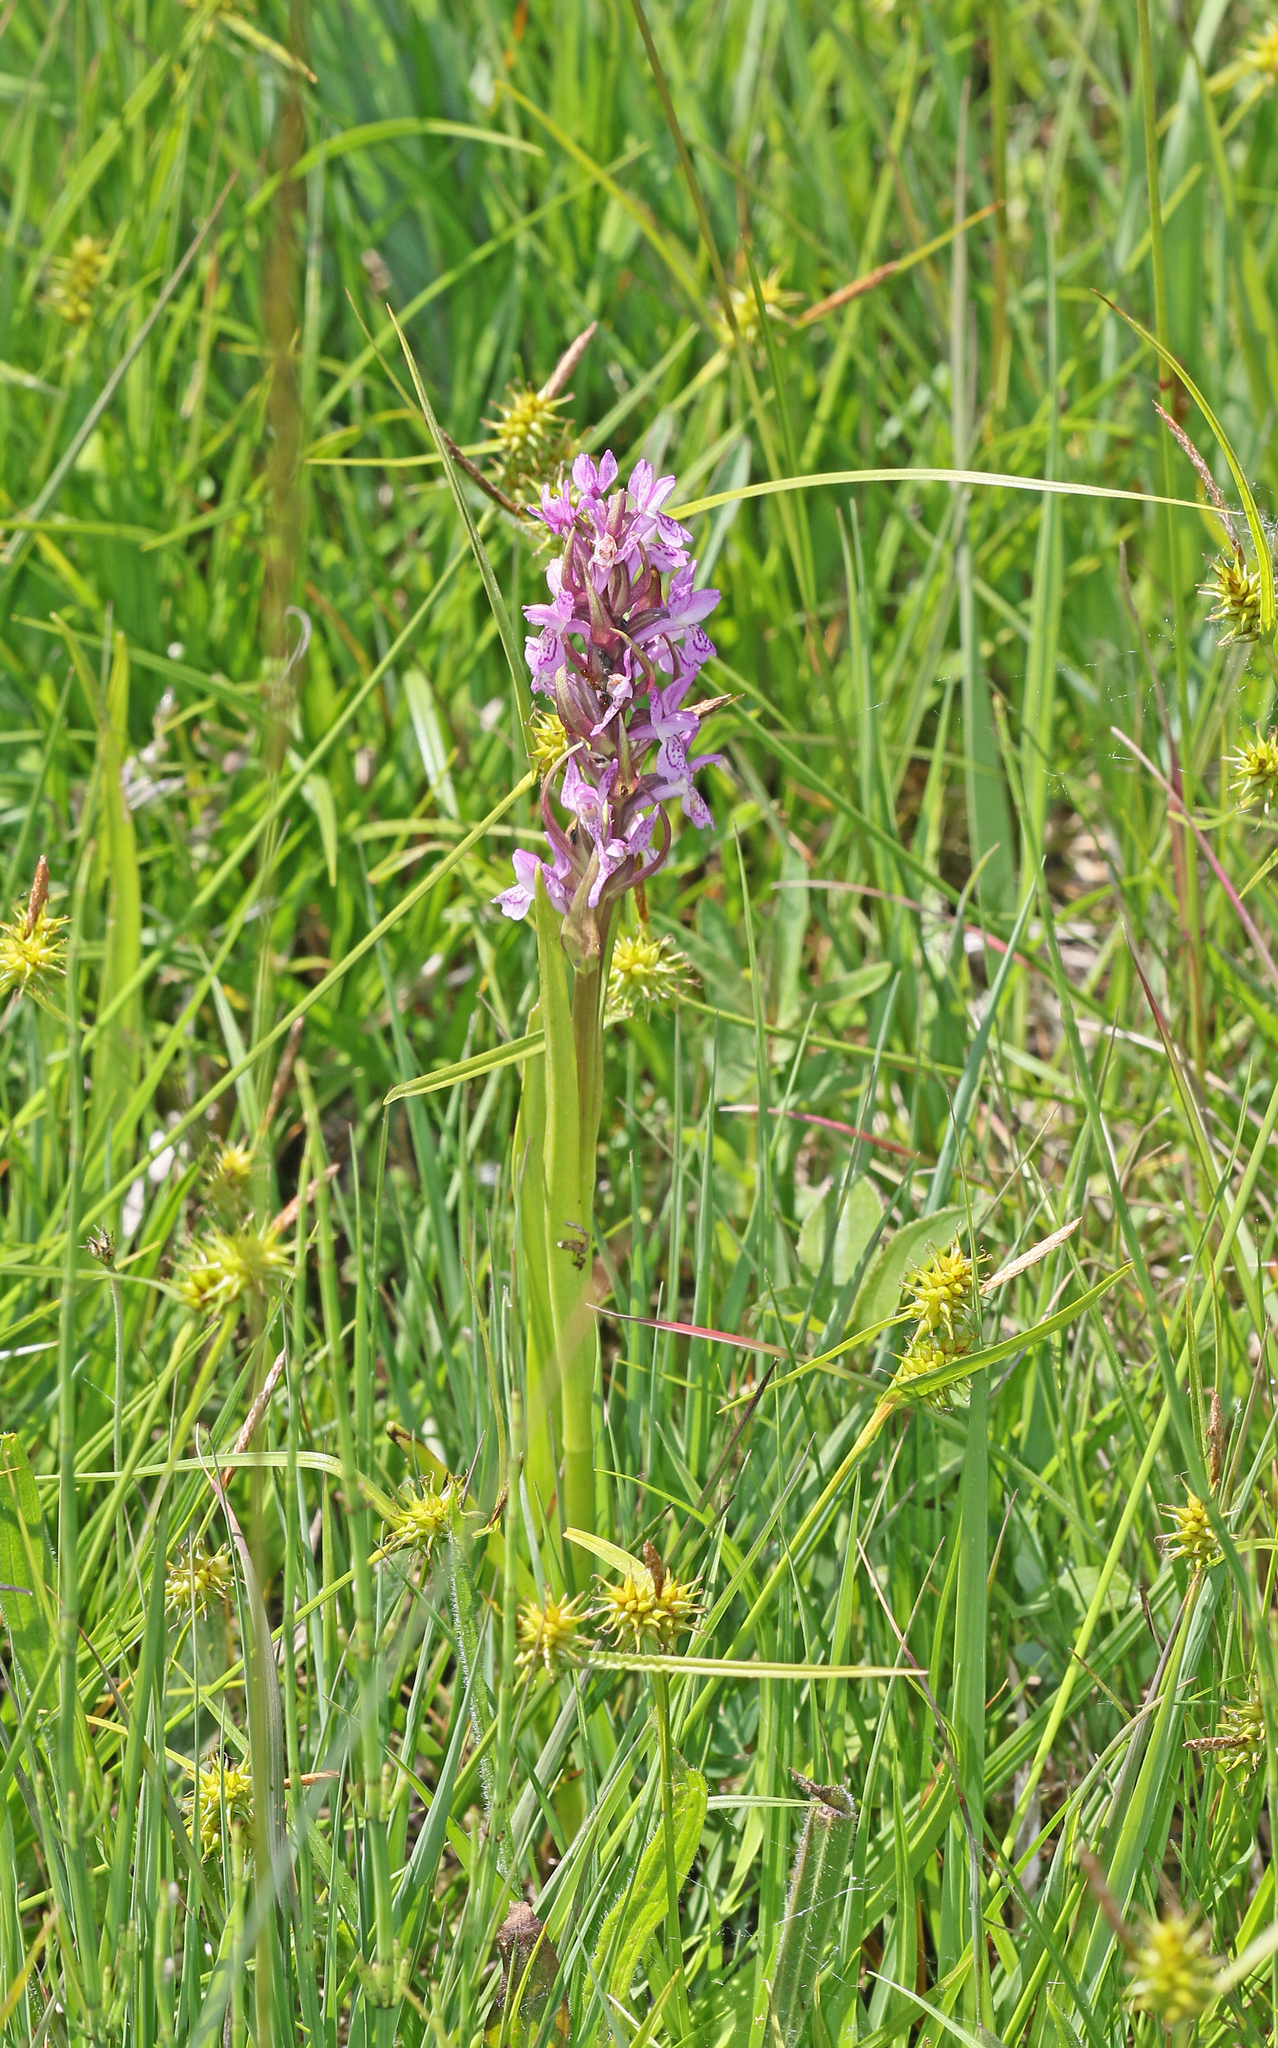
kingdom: Plantae
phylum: Tracheophyta
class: Liliopsida
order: Asparagales
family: Orchidaceae
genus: Dactylorhiza
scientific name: Dactylorhiza incarnata
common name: Early marsh-orchid
